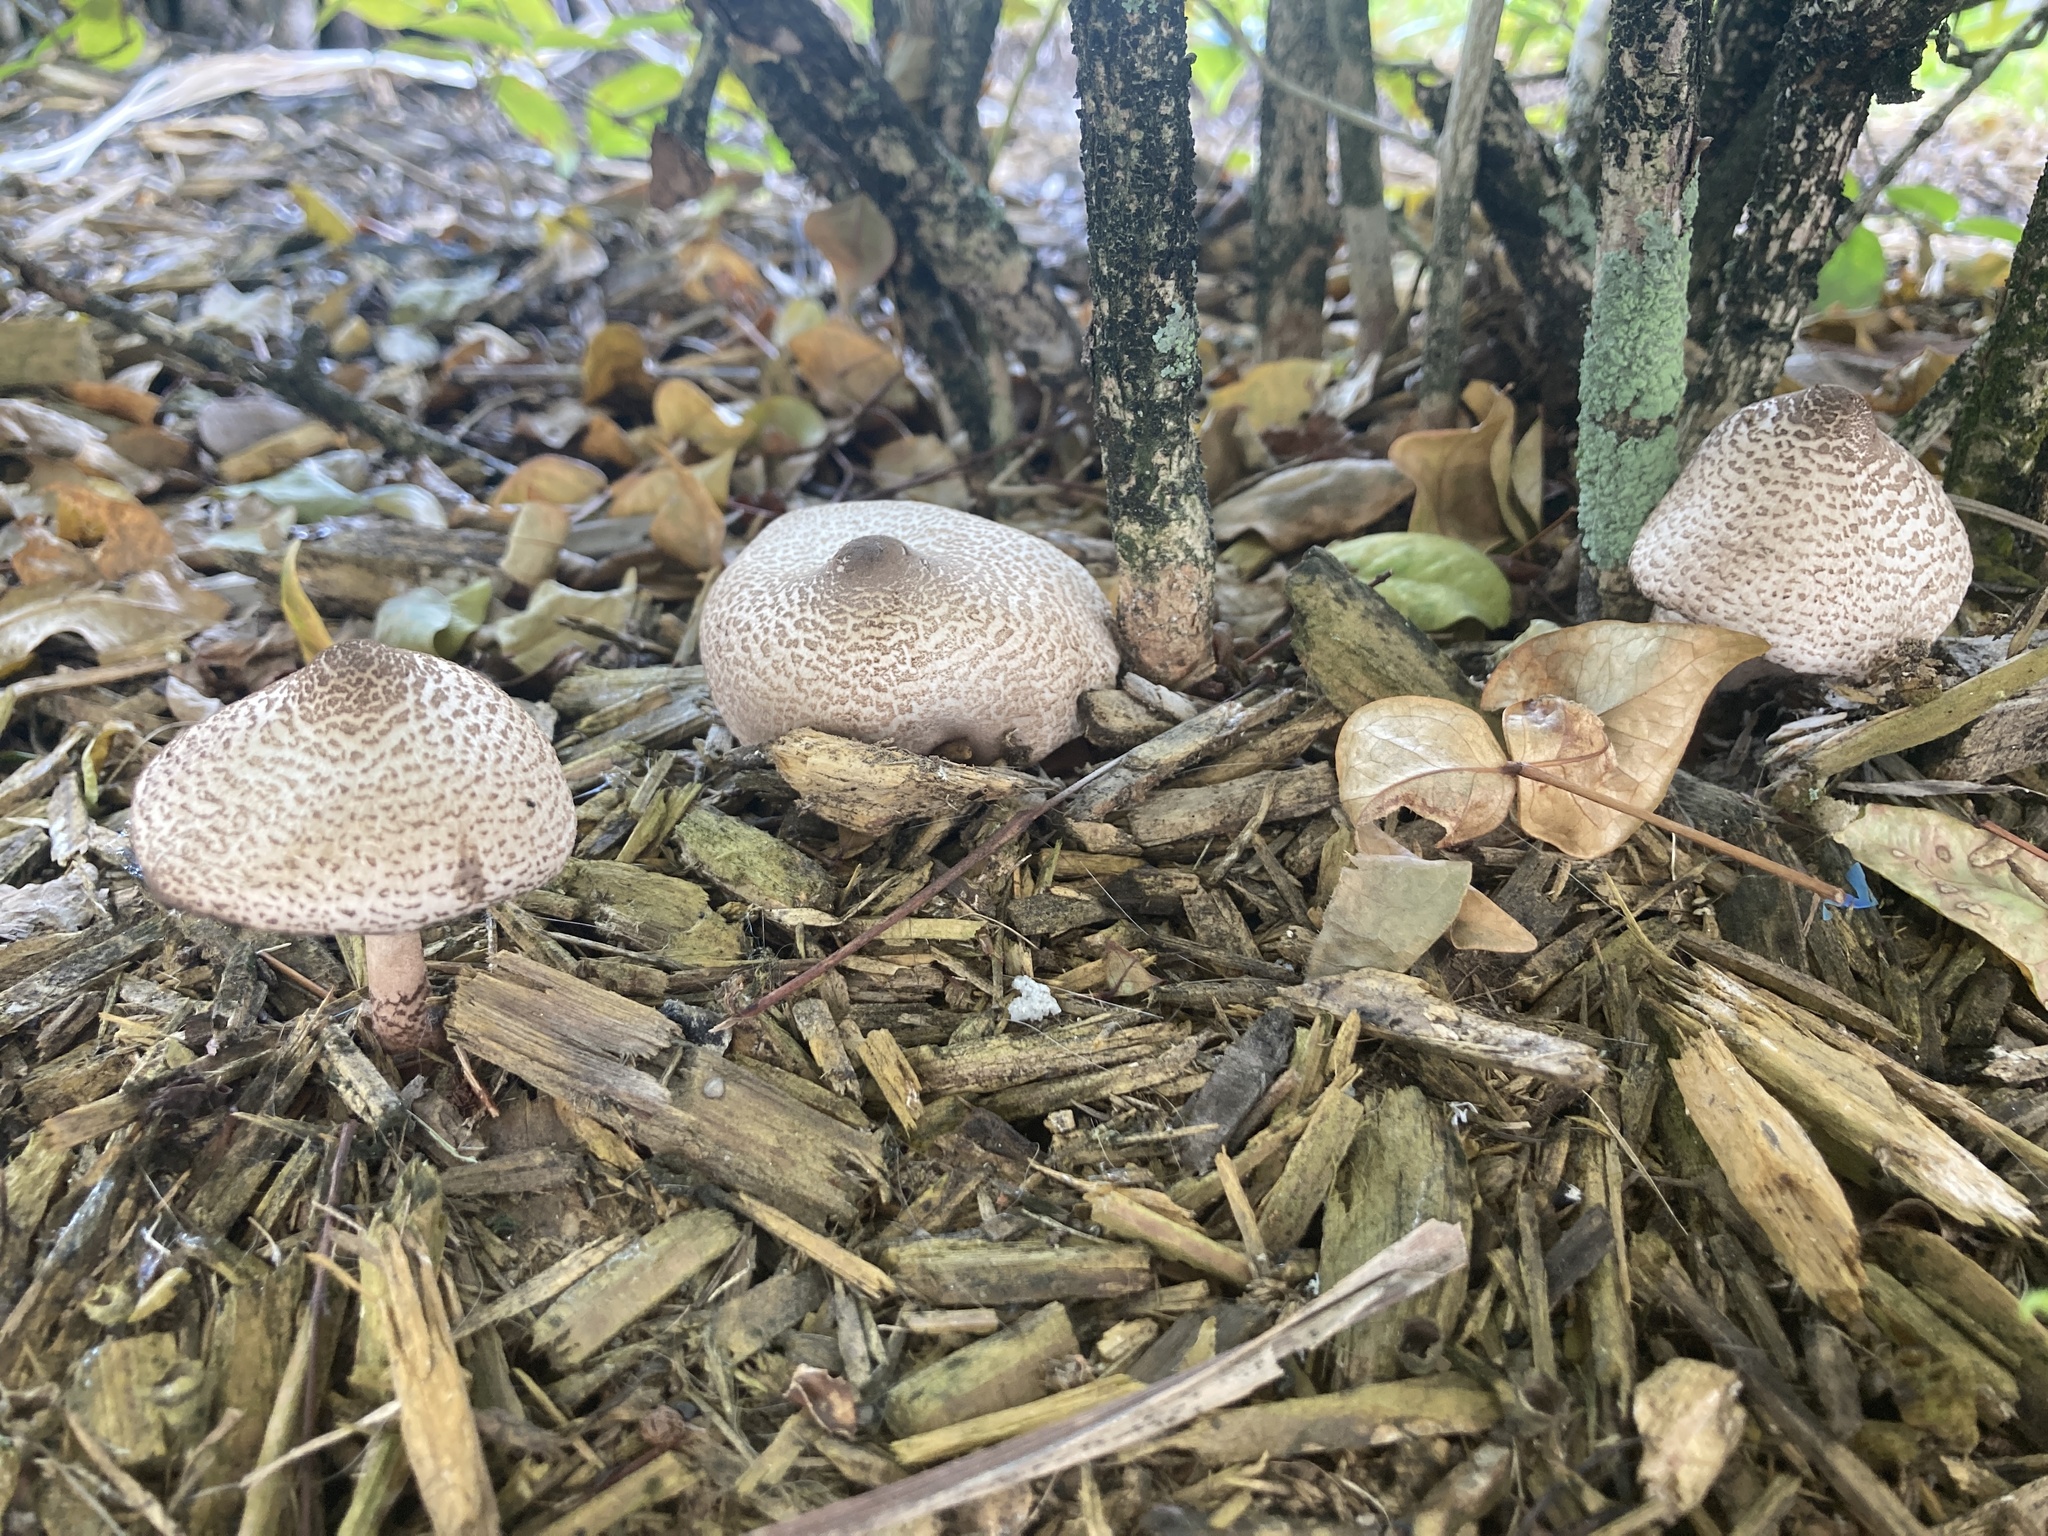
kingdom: Fungi
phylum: Basidiomycota
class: Agaricomycetes
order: Agaricales
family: Agaricaceae
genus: Chlorophyllum
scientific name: Chlorophyllum molybdites
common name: False parasol
